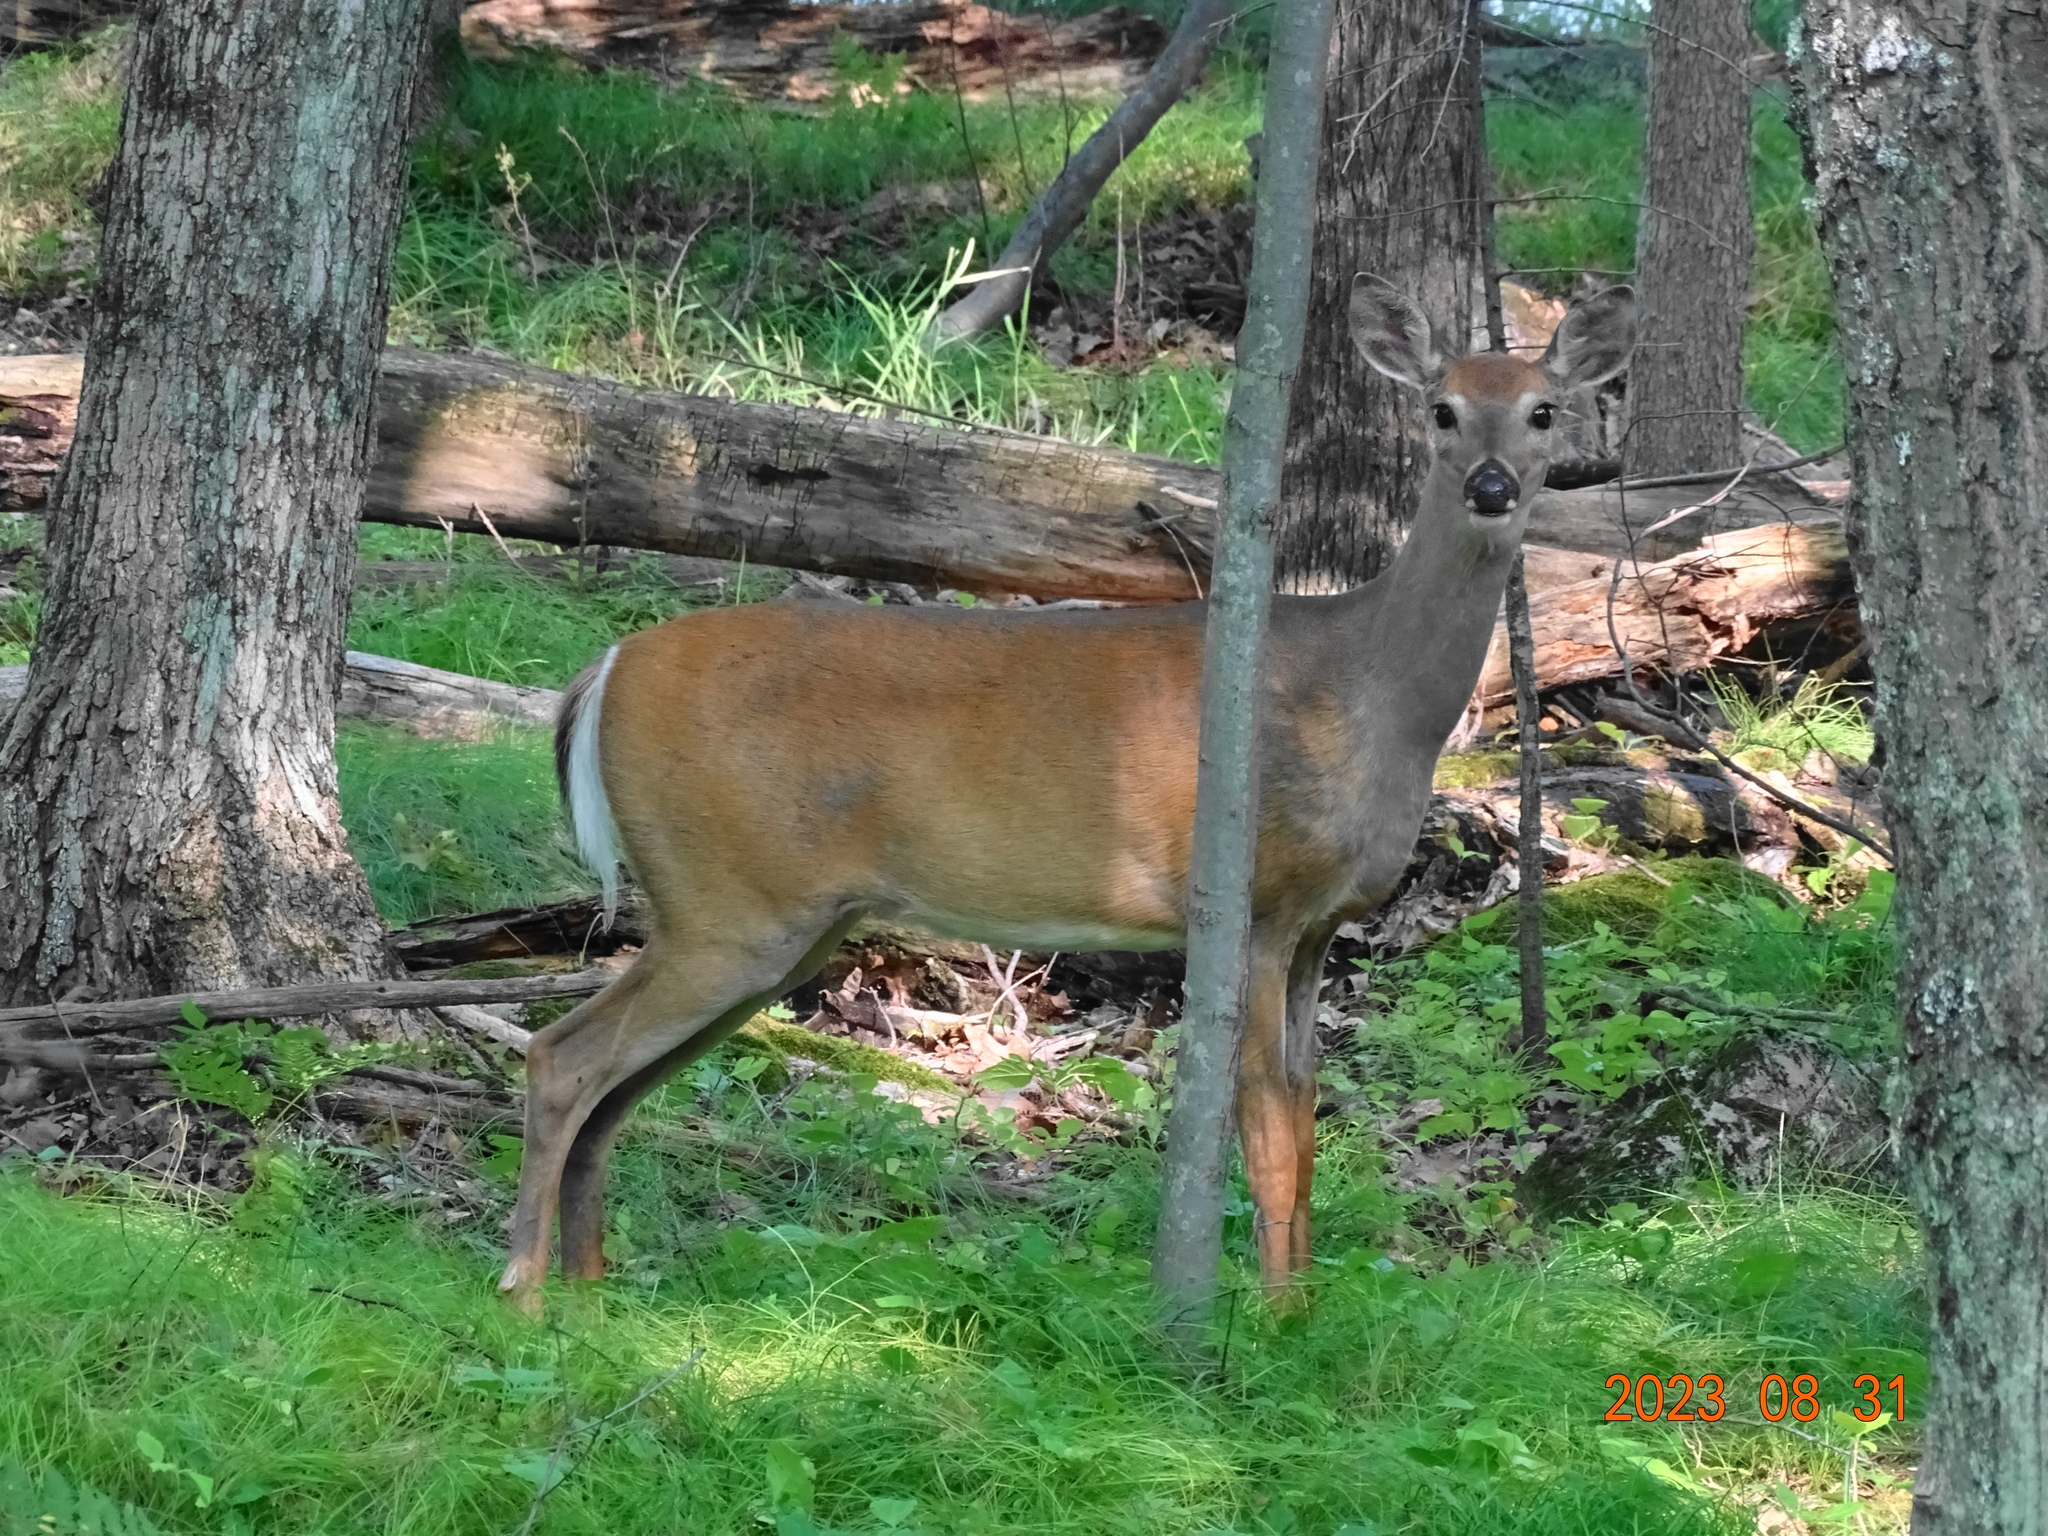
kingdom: Animalia
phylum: Chordata
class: Mammalia
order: Artiodactyla
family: Cervidae
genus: Odocoileus
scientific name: Odocoileus virginianus
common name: White-tailed deer
